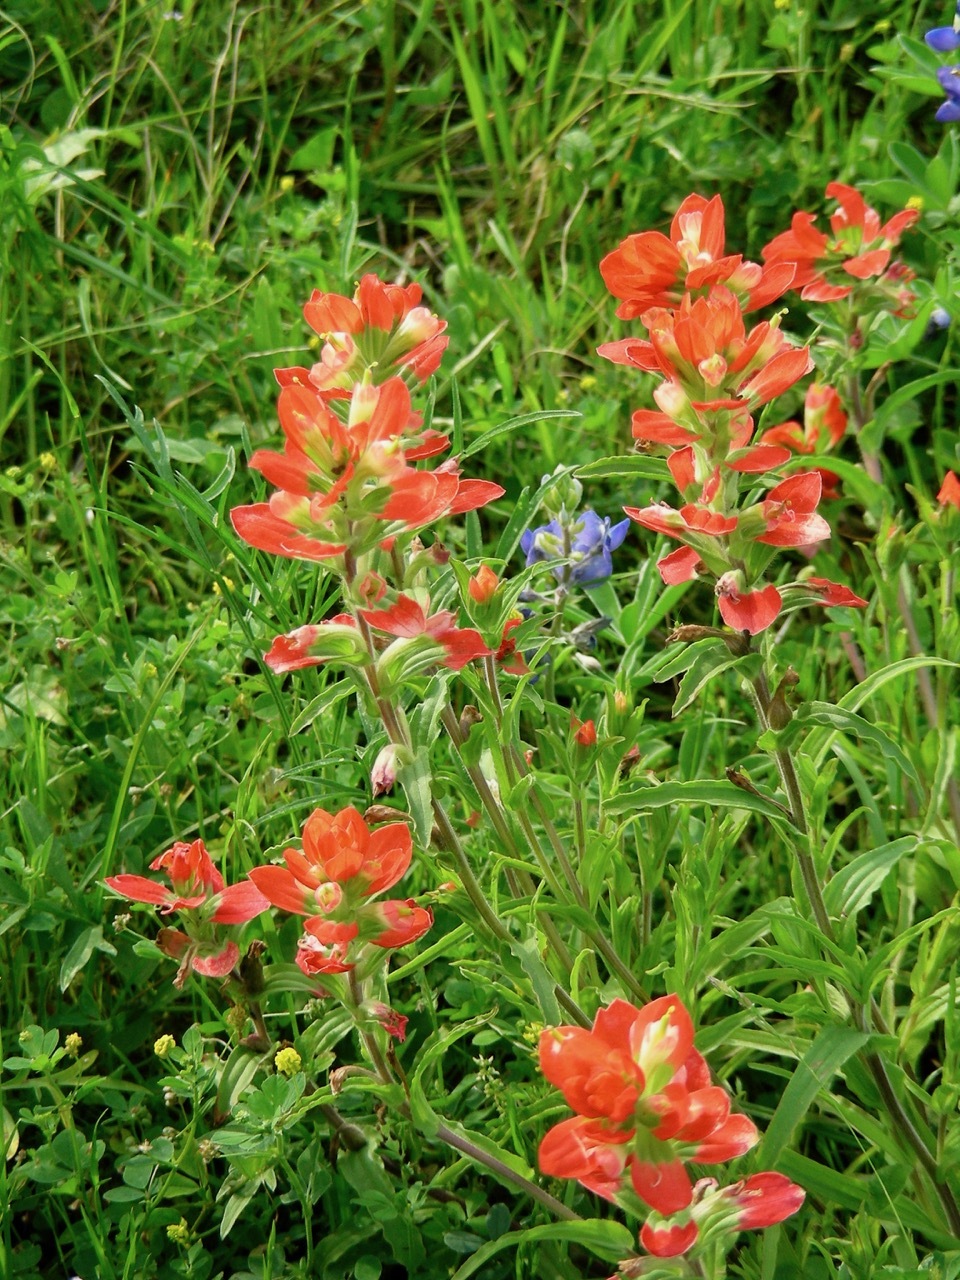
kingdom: Plantae
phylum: Tracheophyta
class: Magnoliopsida
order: Lamiales
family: Orobanchaceae
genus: Castilleja
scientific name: Castilleja indivisa
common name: Texas paintbrush
